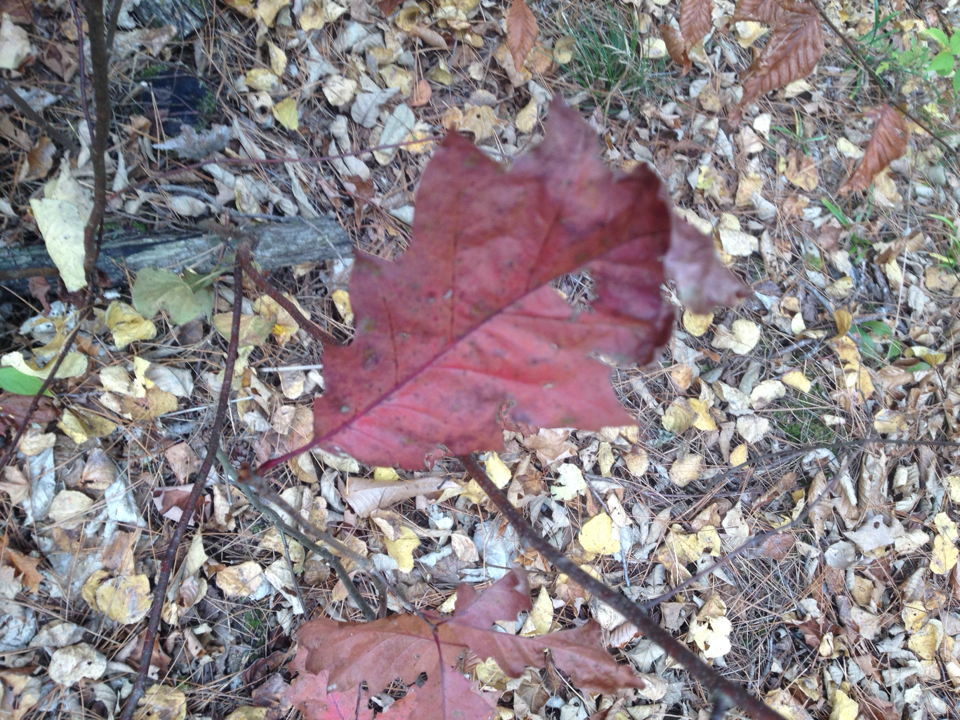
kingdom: Plantae
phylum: Tracheophyta
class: Magnoliopsida
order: Fagales
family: Fagaceae
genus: Quercus
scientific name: Quercus rubra
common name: Red oak
